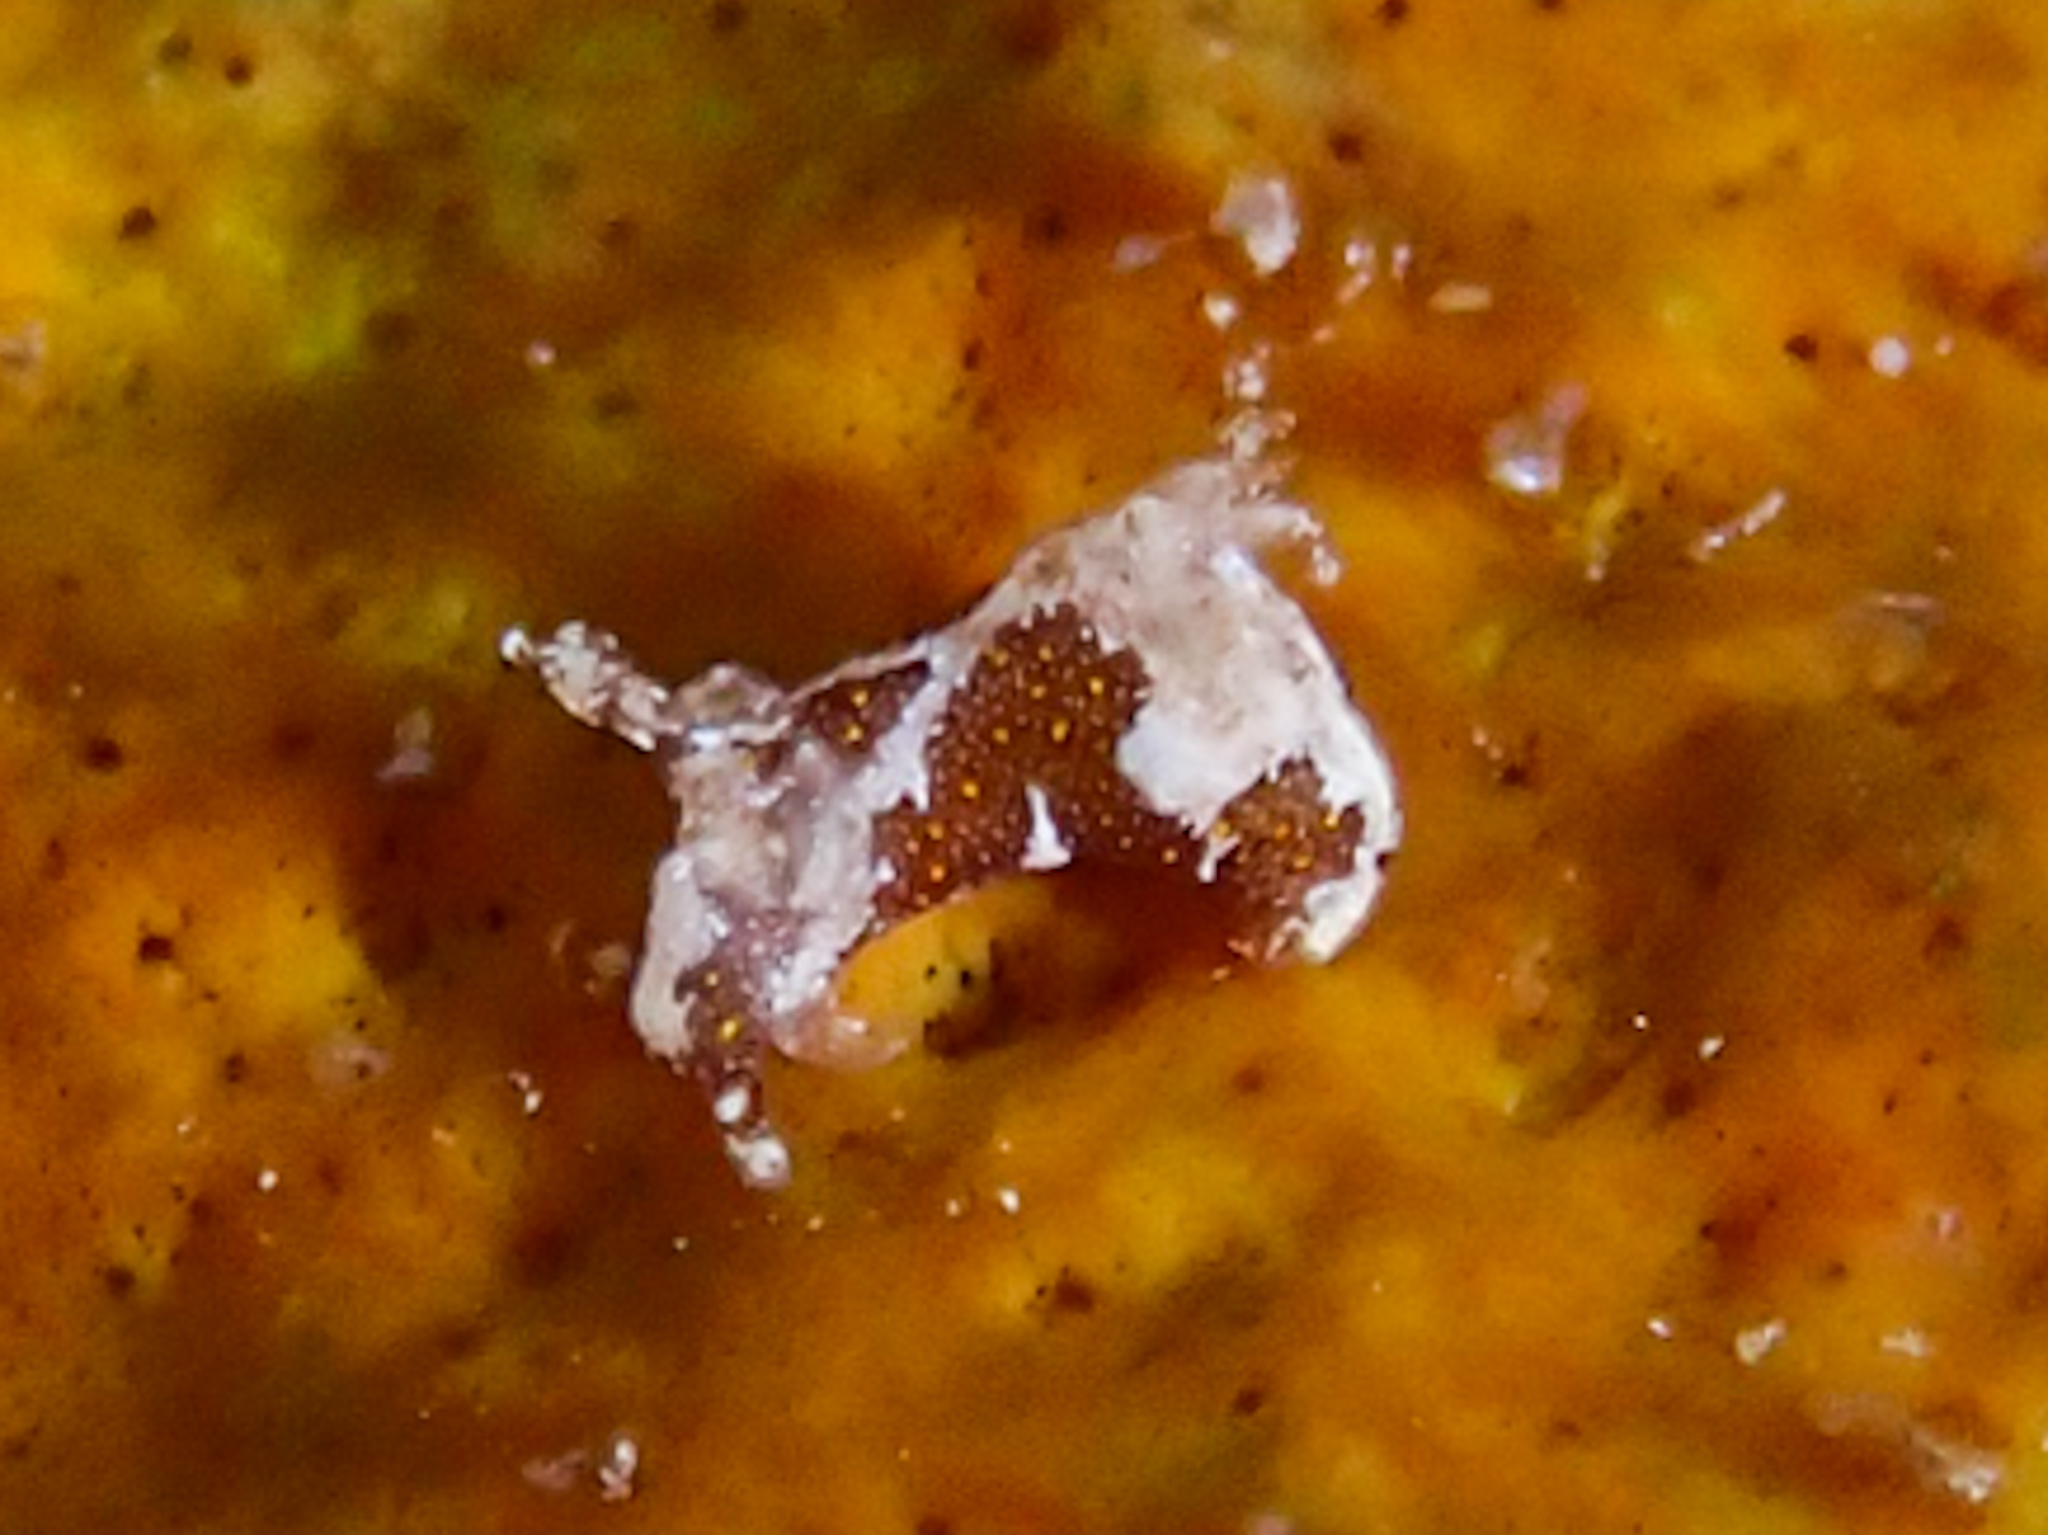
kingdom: Animalia
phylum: Mollusca
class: Gastropoda
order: Nudibranchia
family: Goniodorididae
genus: Trapania
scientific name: Trapania dalva
